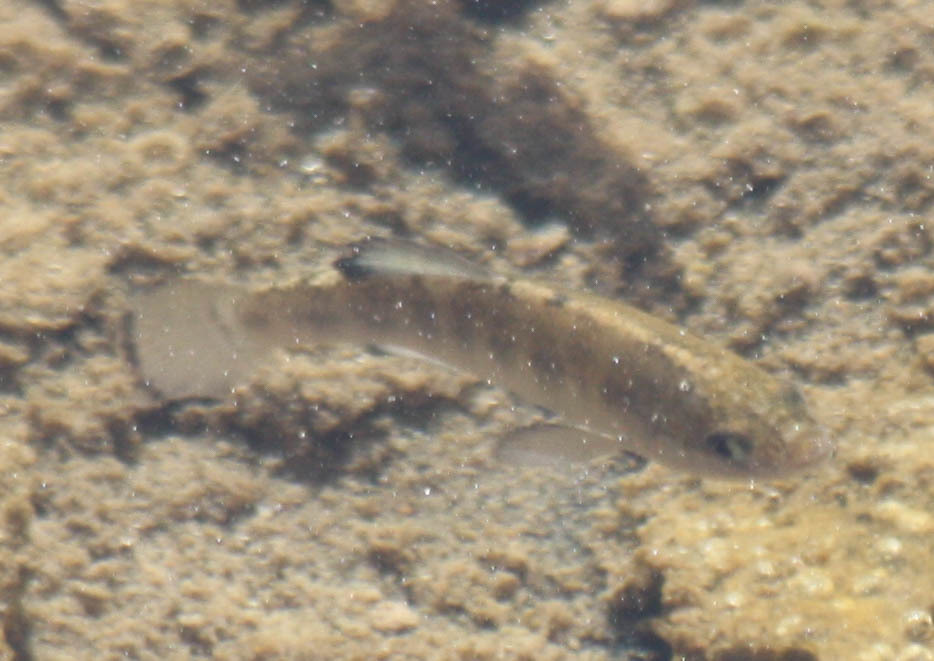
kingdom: Animalia
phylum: Chordata
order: Cyprinodontiformes
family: Cyprinodontidae
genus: Cyprinodon
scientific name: Cyprinodon salinus
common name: Cottonball marsh pupfish
